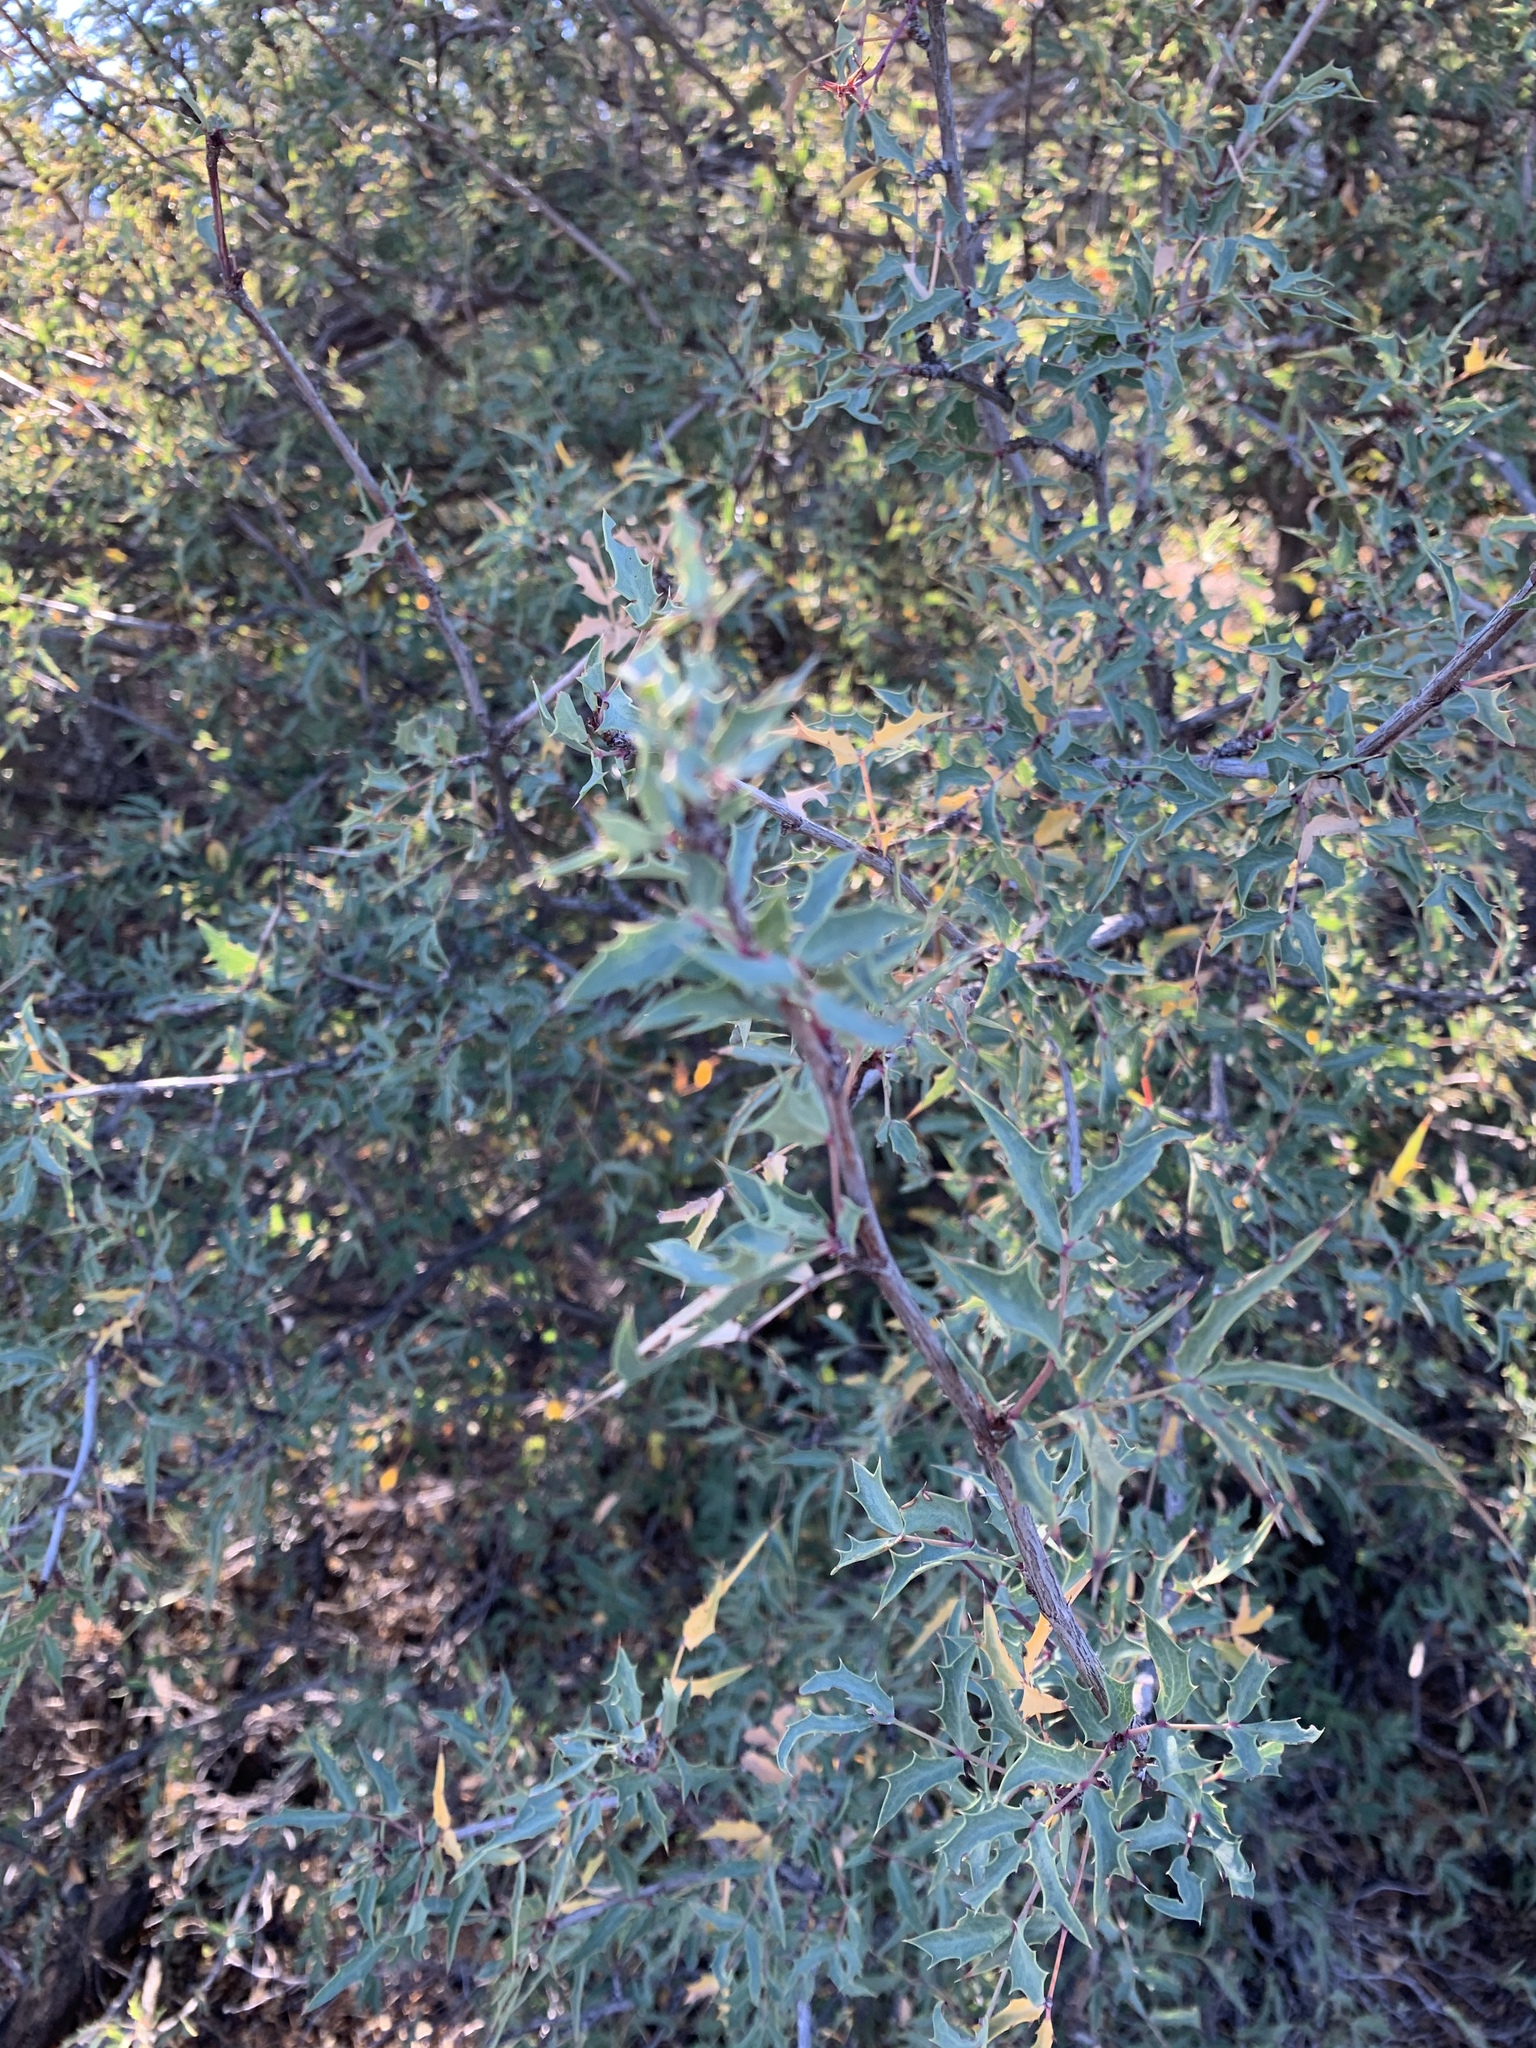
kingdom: Plantae
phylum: Tracheophyta
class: Magnoliopsida
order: Ranunculales
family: Berberidaceae
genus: Alloberberis
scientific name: Alloberberis haematocarpa
